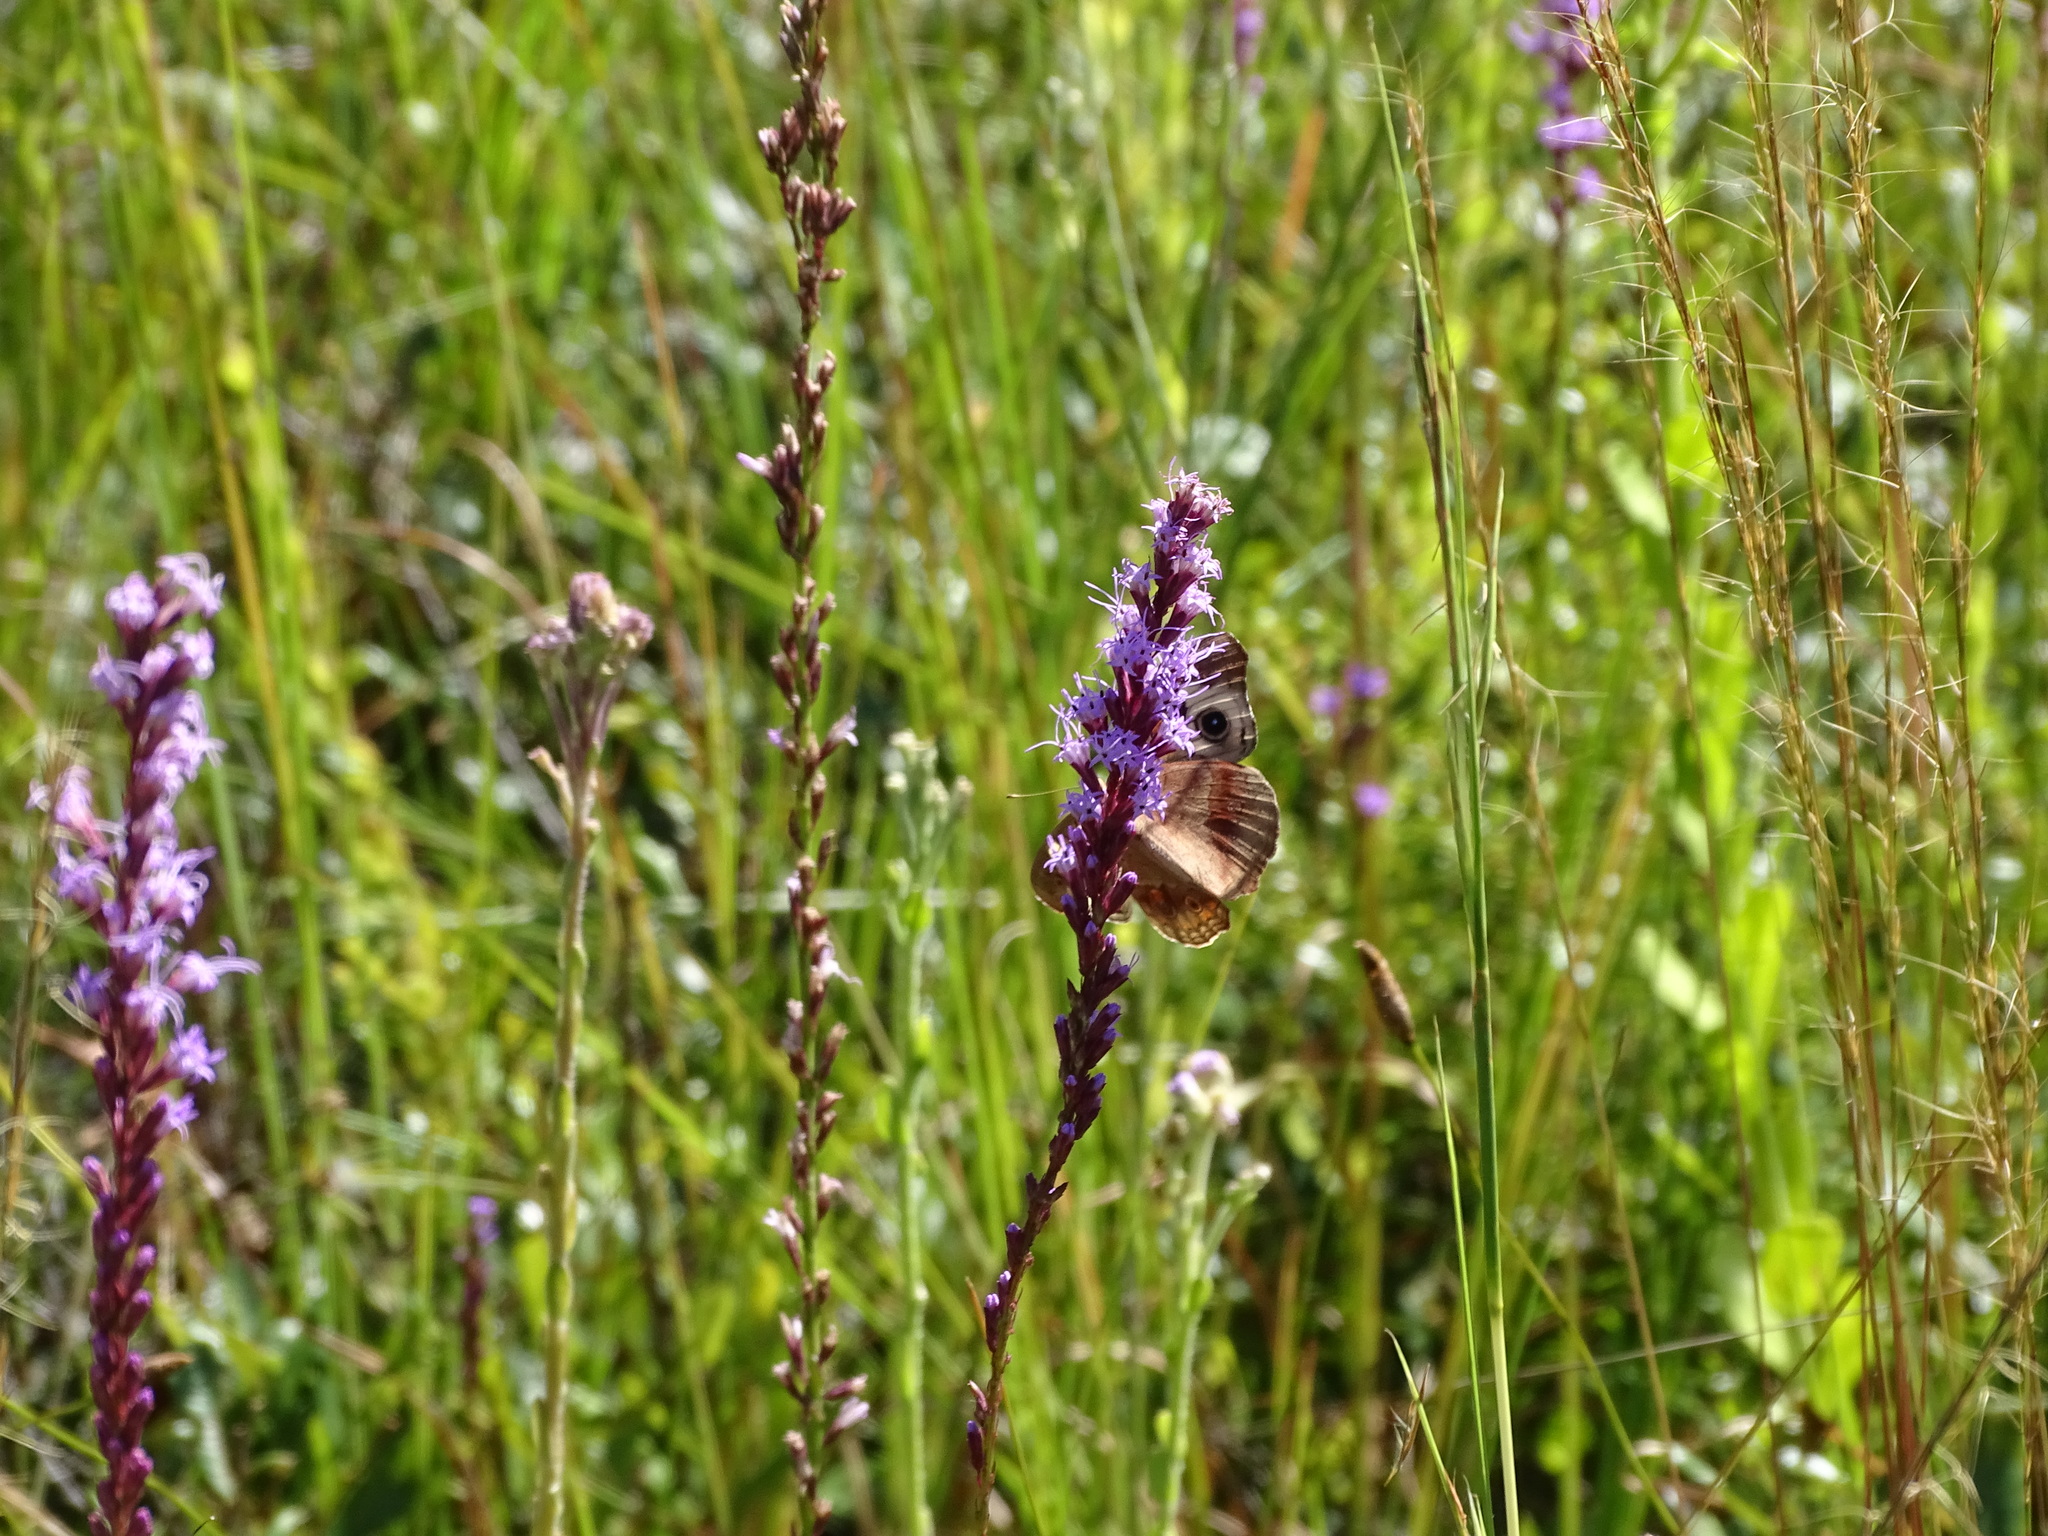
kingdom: Animalia
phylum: Arthropoda
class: Insecta
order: Lepidoptera
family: Nymphalidae
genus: Junonia
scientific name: Junonia coenia
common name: Common buckeye
